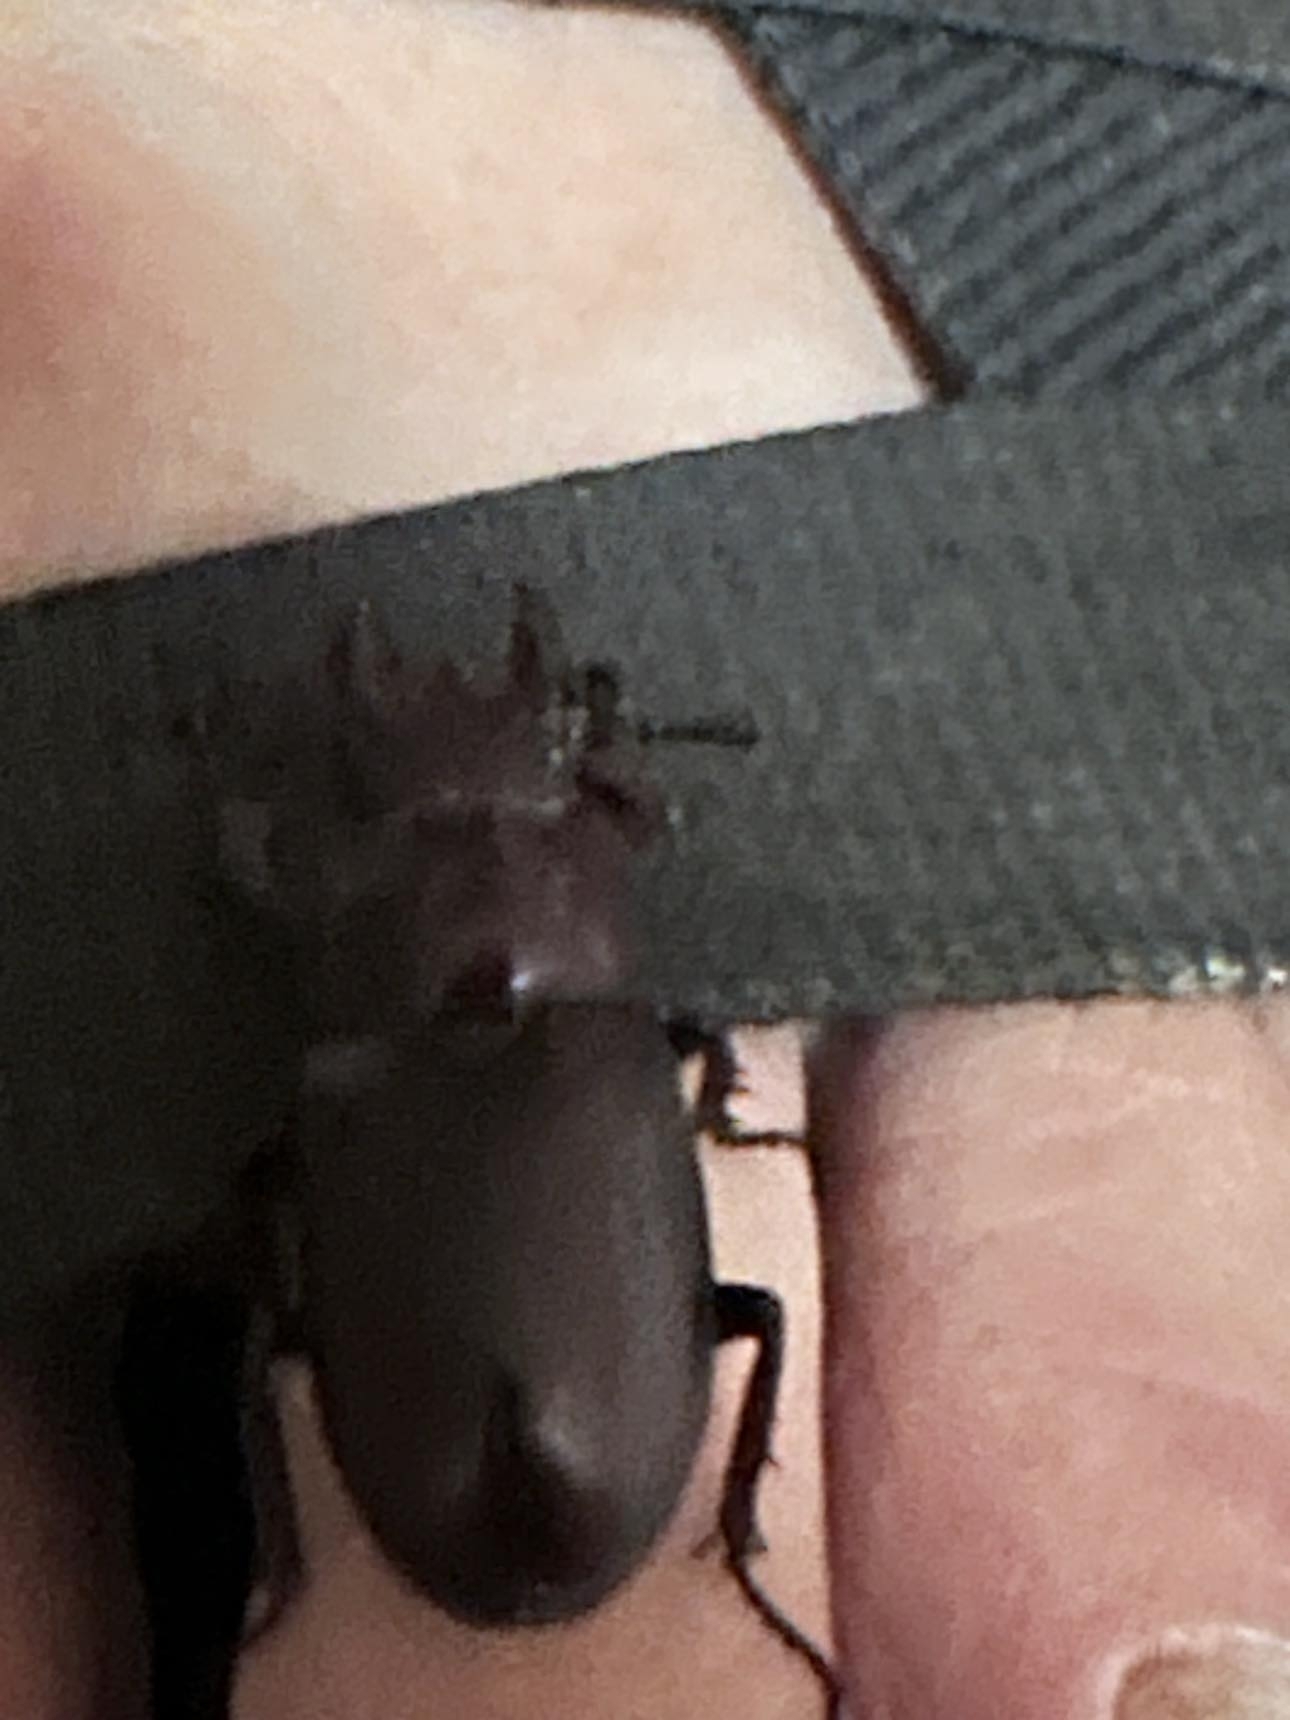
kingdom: Animalia
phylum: Arthropoda
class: Insecta
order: Coleoptera
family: Lucanidae
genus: Lucanus
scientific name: Lucanus capreolus
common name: Stag beetle
